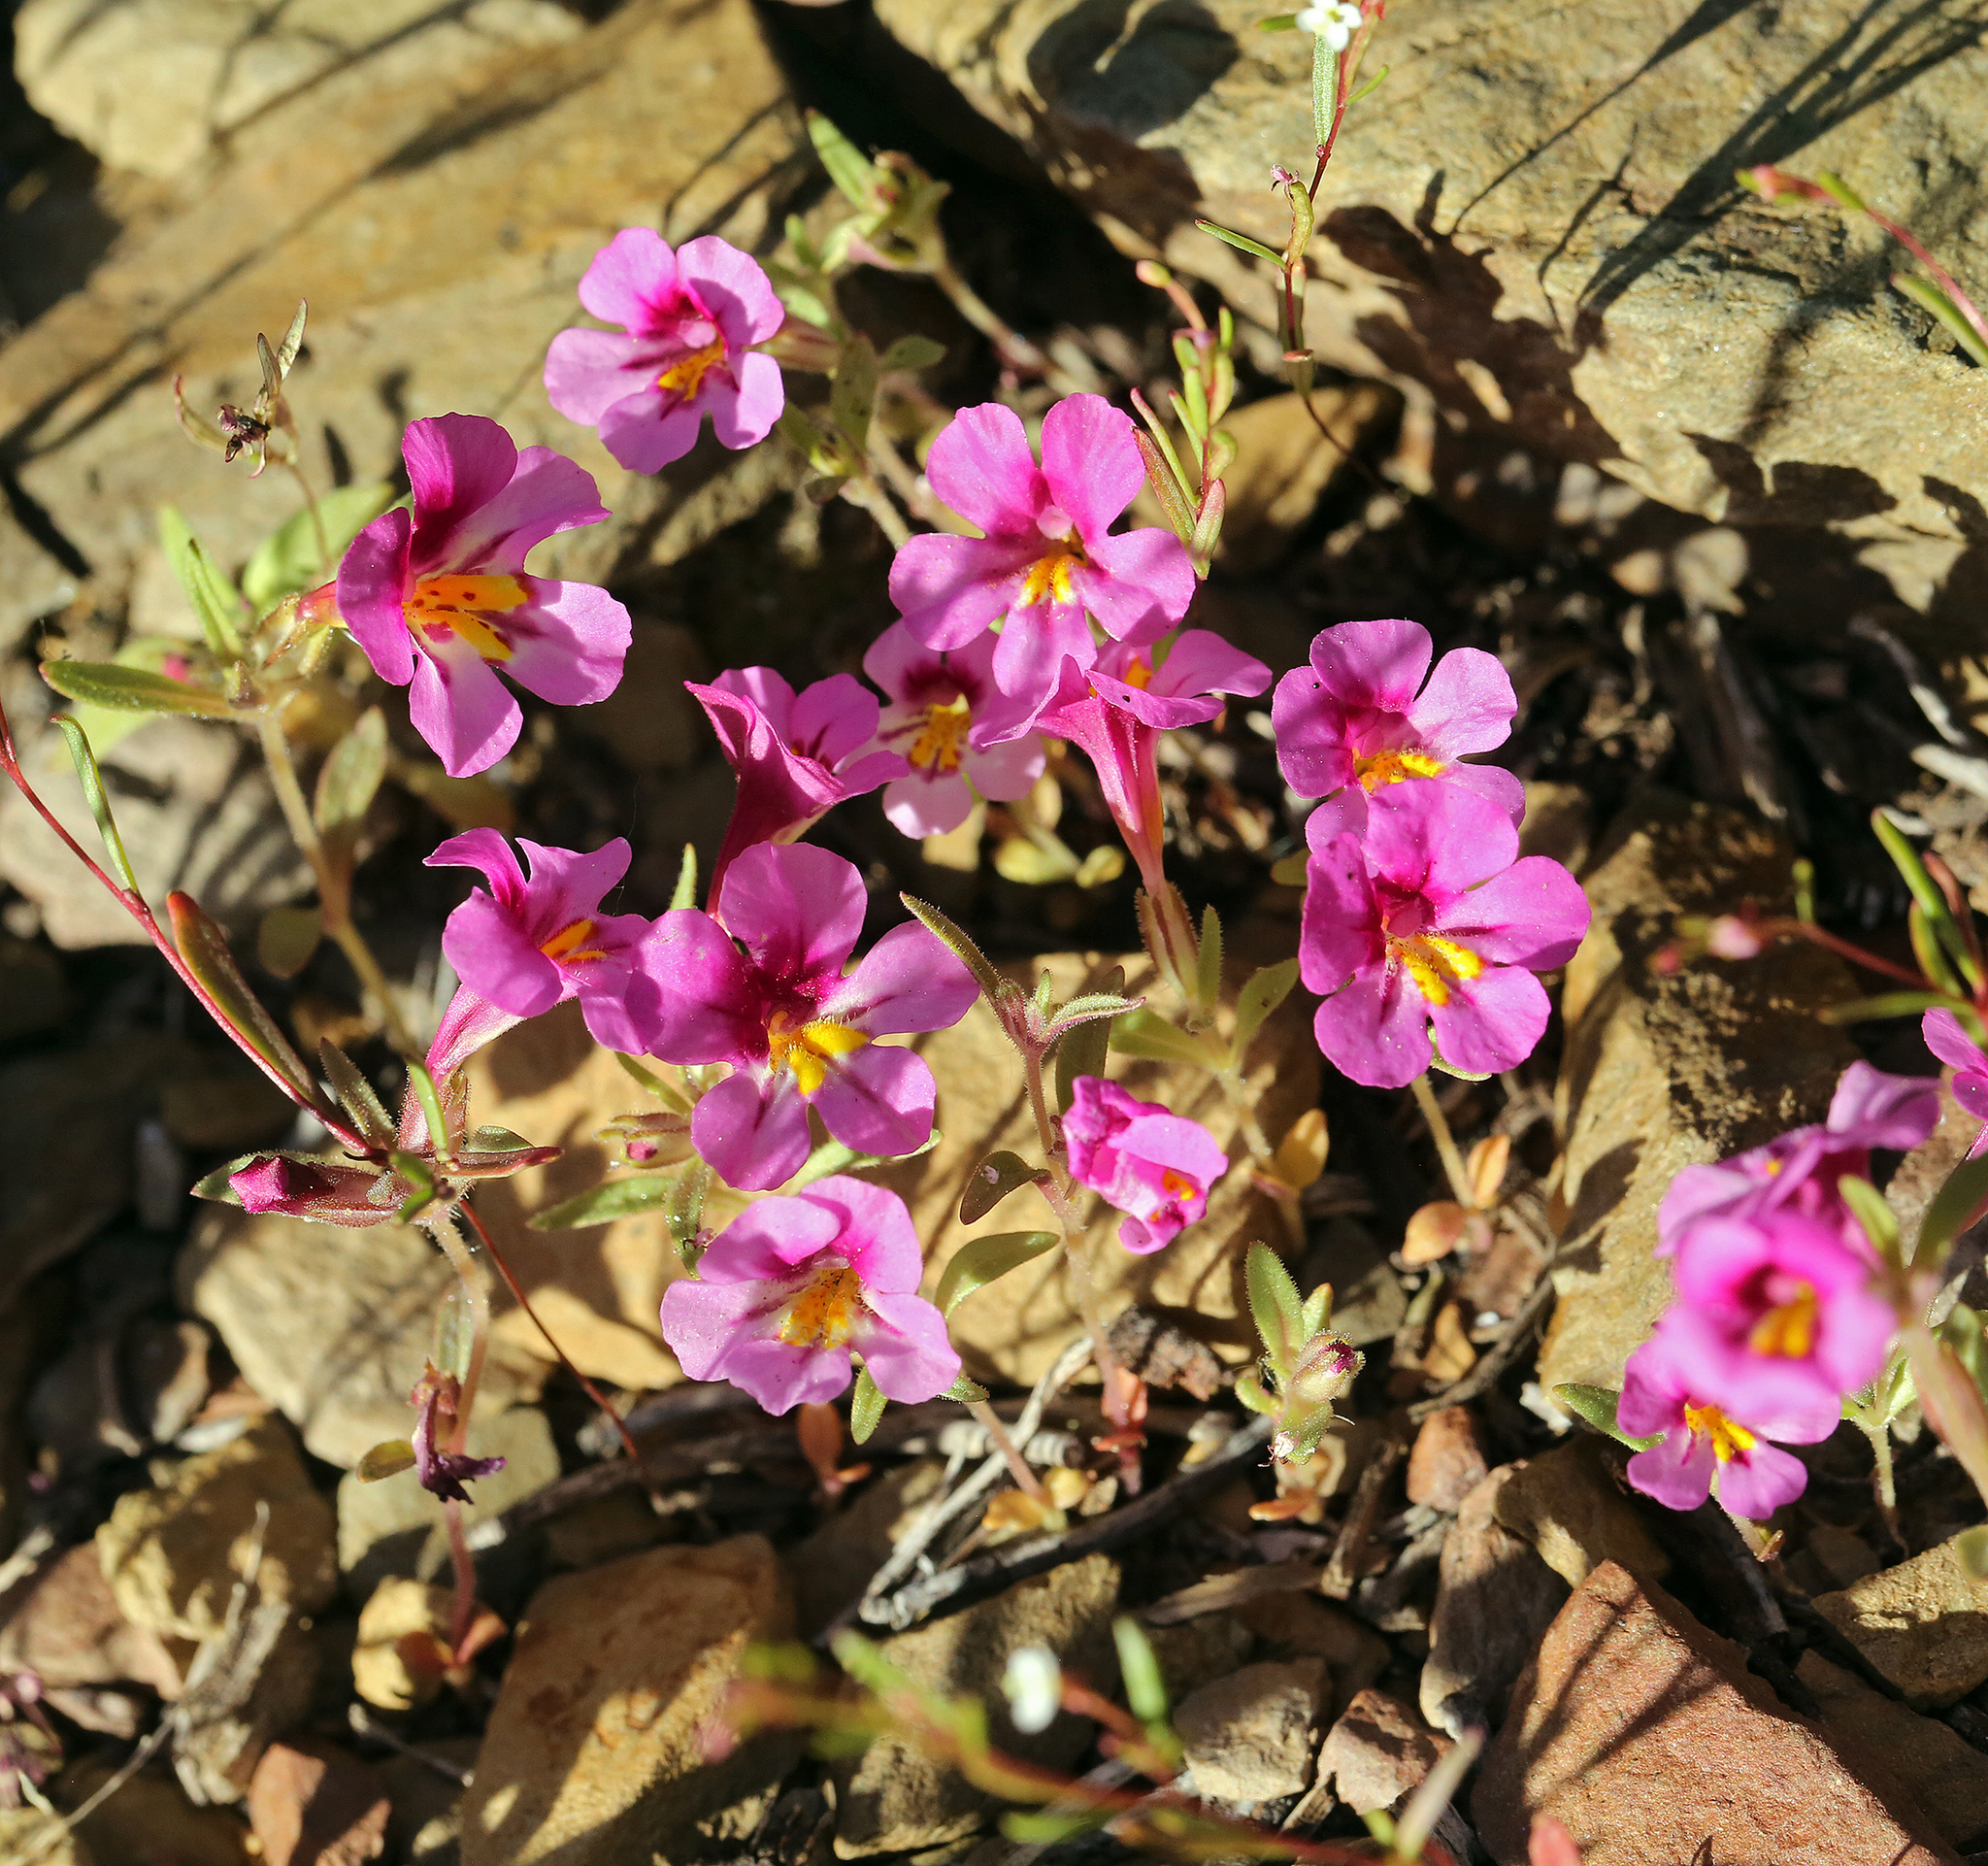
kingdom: Plantae
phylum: Tracheophyta
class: Magnoliopsida
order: Lamiales
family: Phrymaceae
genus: Diplacus
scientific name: Diplacus mephiticus
